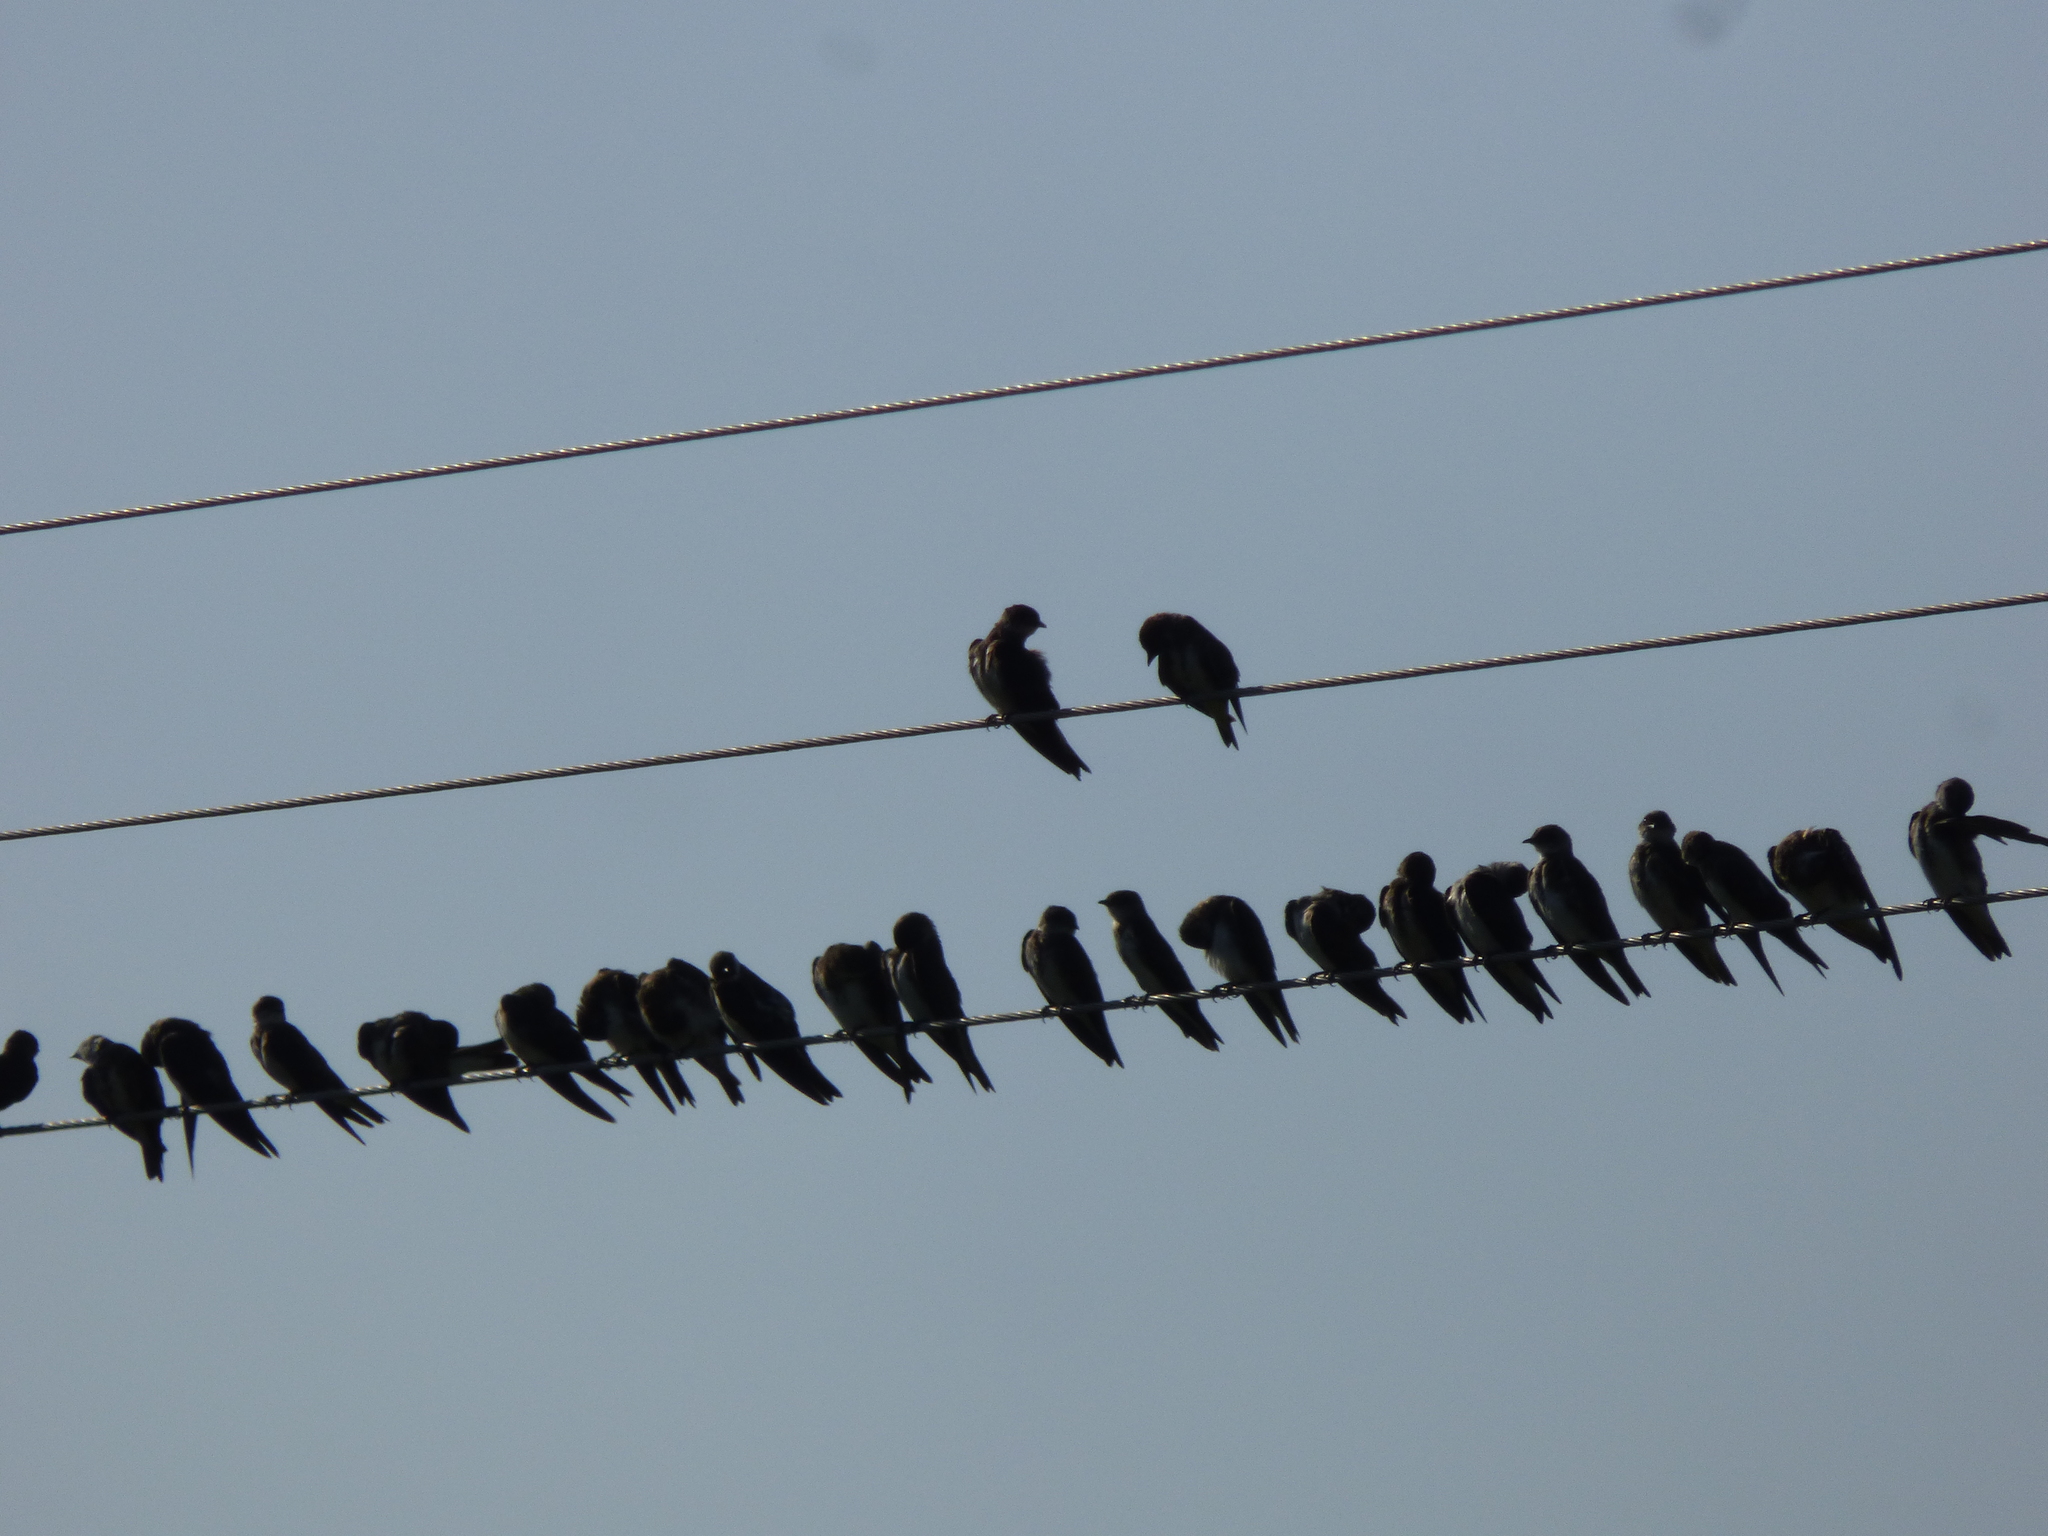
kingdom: Animalia
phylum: Chordata
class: Aves
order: Passeriformes
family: Hirundinidae
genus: Progne
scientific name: Progne tapera
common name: Brown-chested martin
